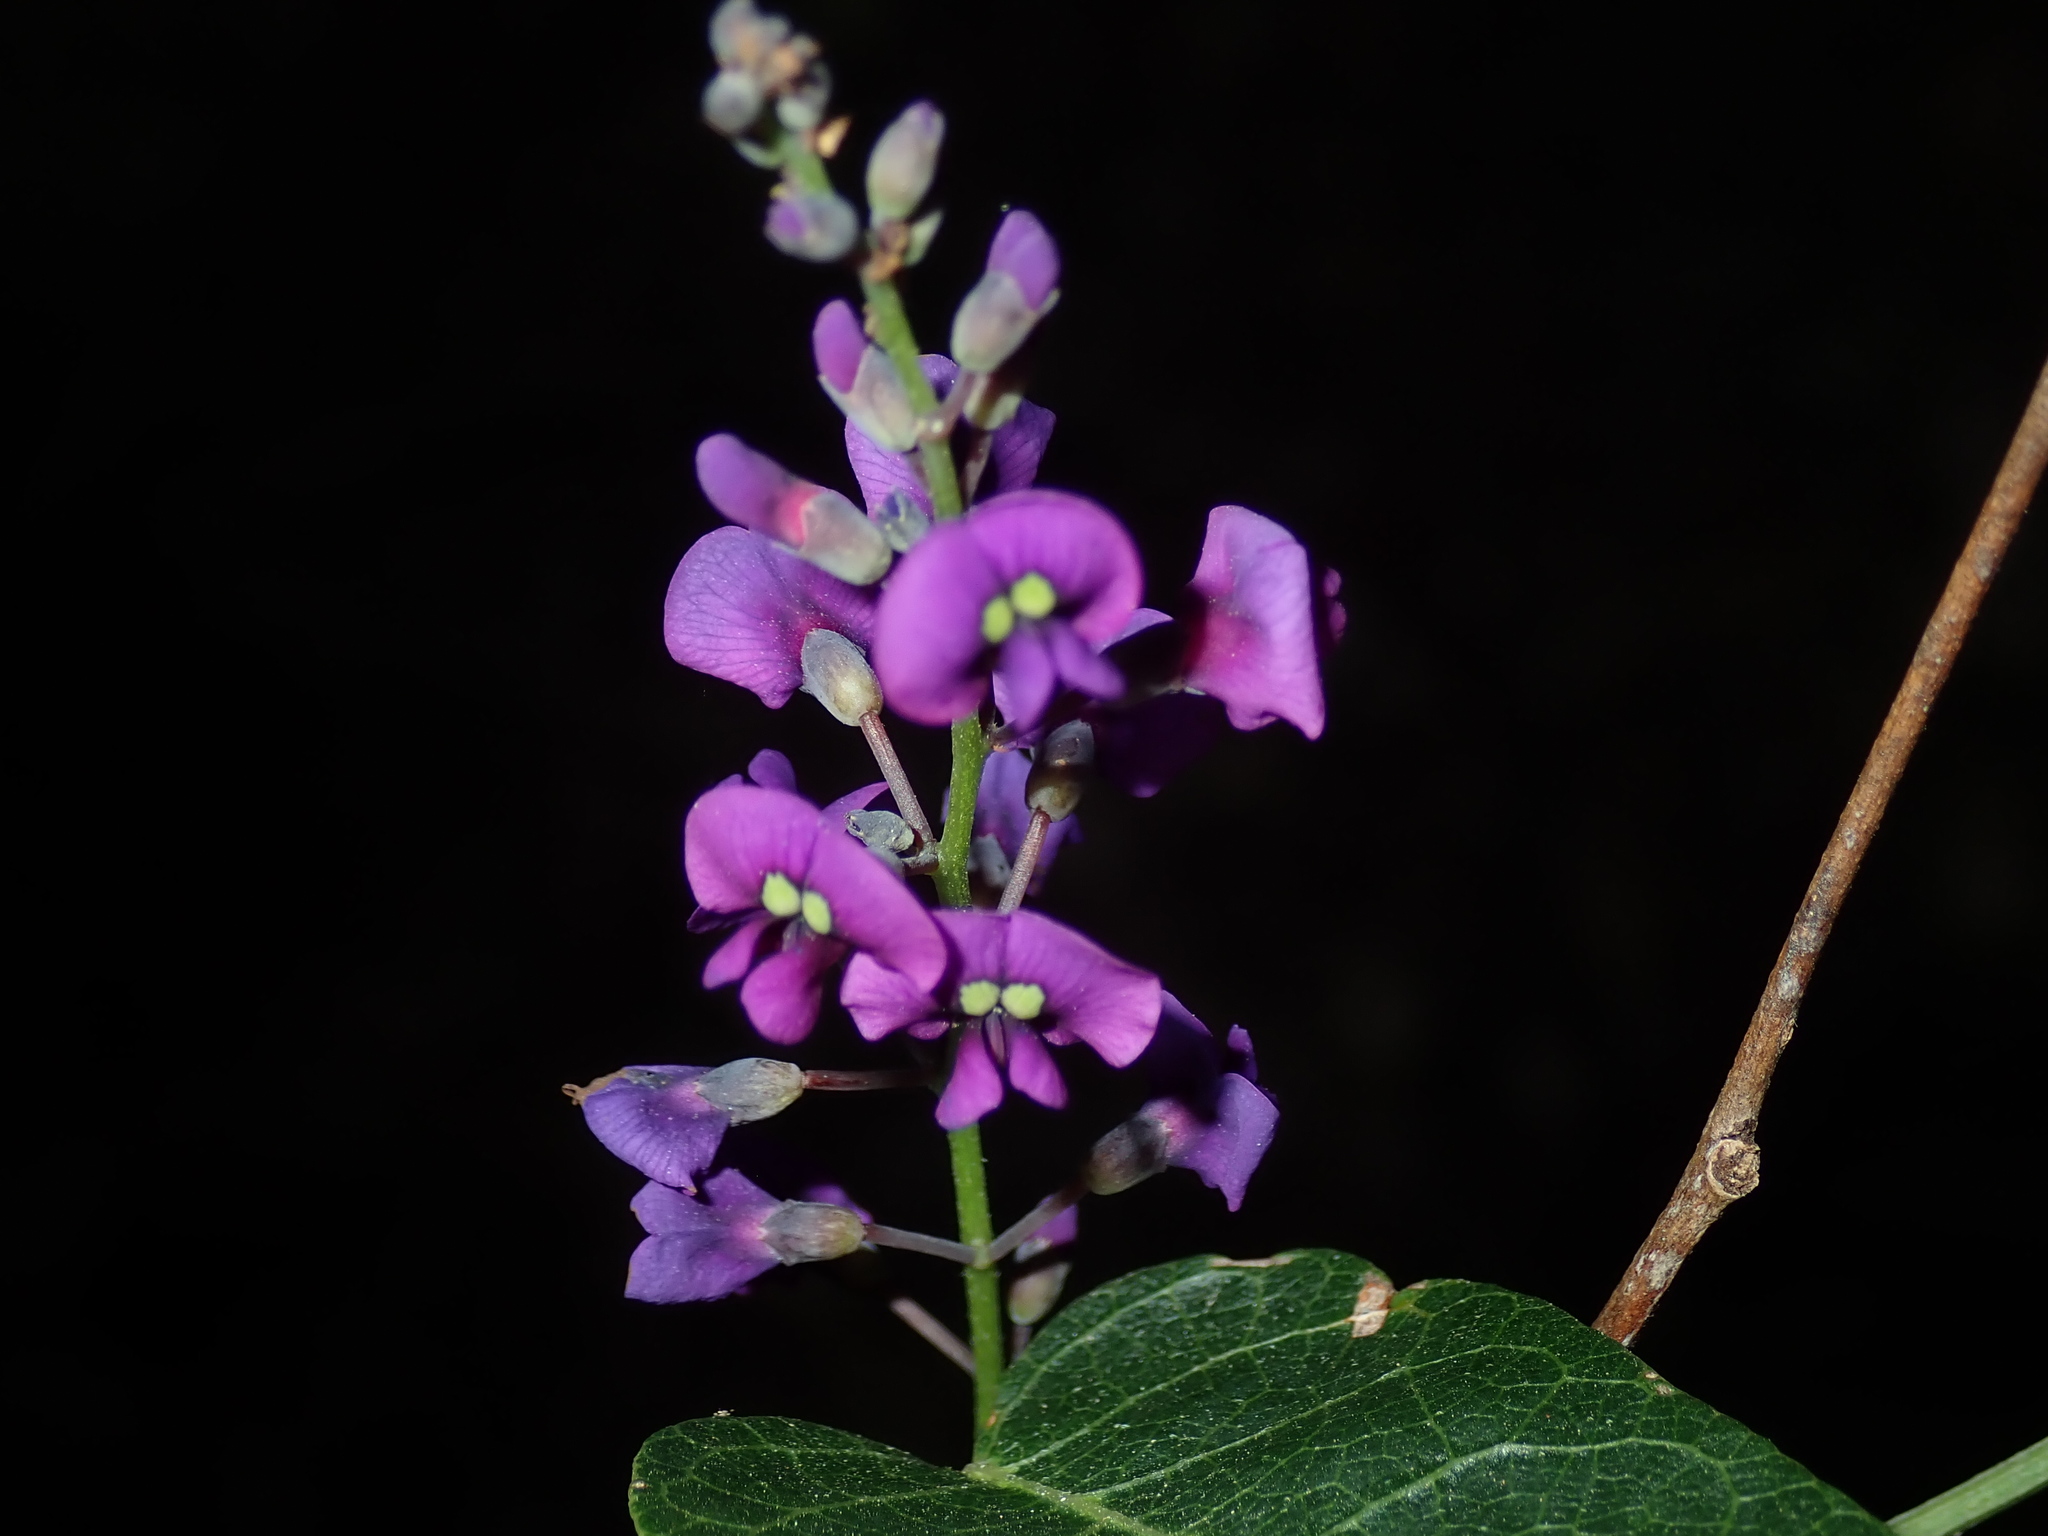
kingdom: Plantae
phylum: Tracheophyta
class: Magnoliopsida
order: Fabales
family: Fabaceae
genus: Hardenbergia
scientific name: Hardenbergia violacea
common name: Coral-pea
